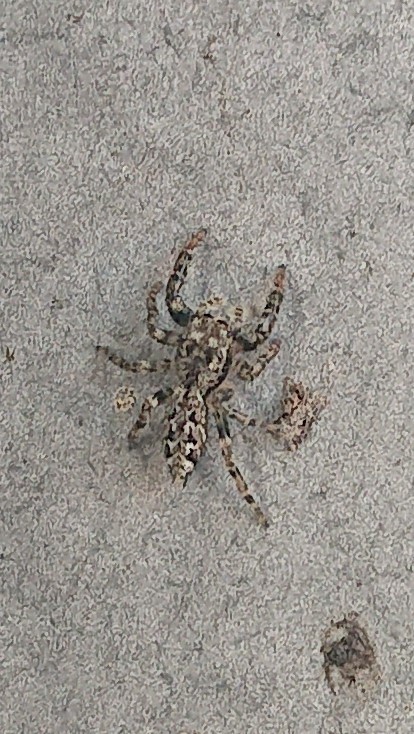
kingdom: Animalia
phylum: Arthropoda
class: Arachnida
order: Araneae
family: Salticidae
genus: Marpissa
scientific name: Marpissa muscosa
